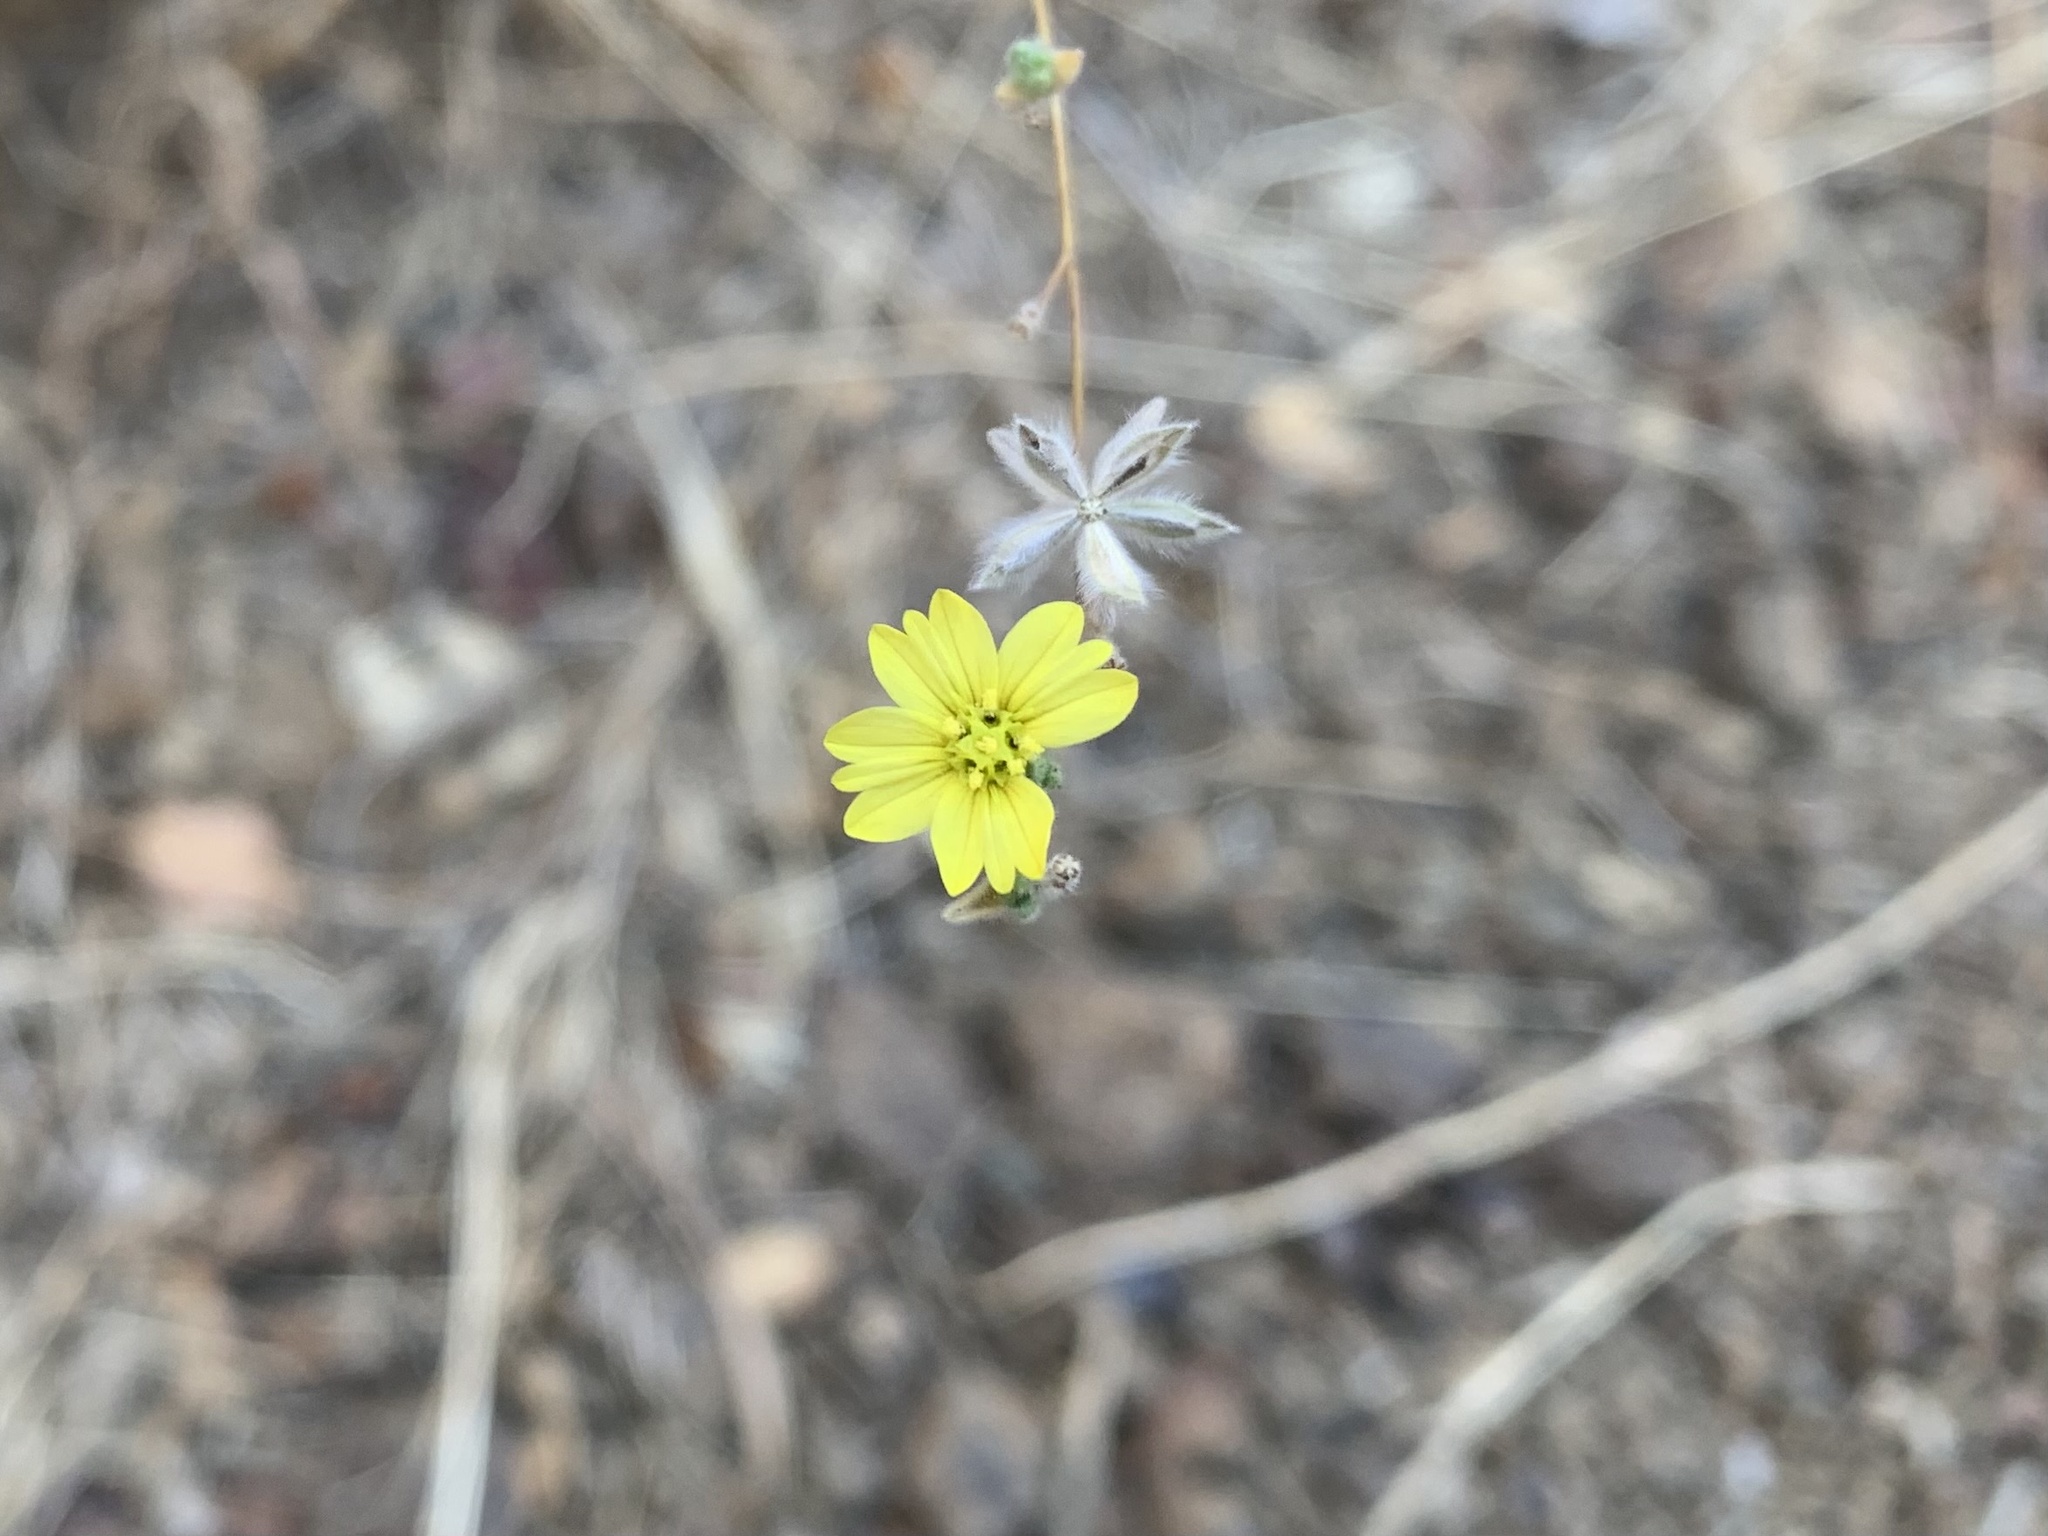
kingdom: Plantae
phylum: Tracheophyta
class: Magnoliopsida
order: Asterales
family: Asteraceae
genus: Lagophylla
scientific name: Lagophylla ramosissima
